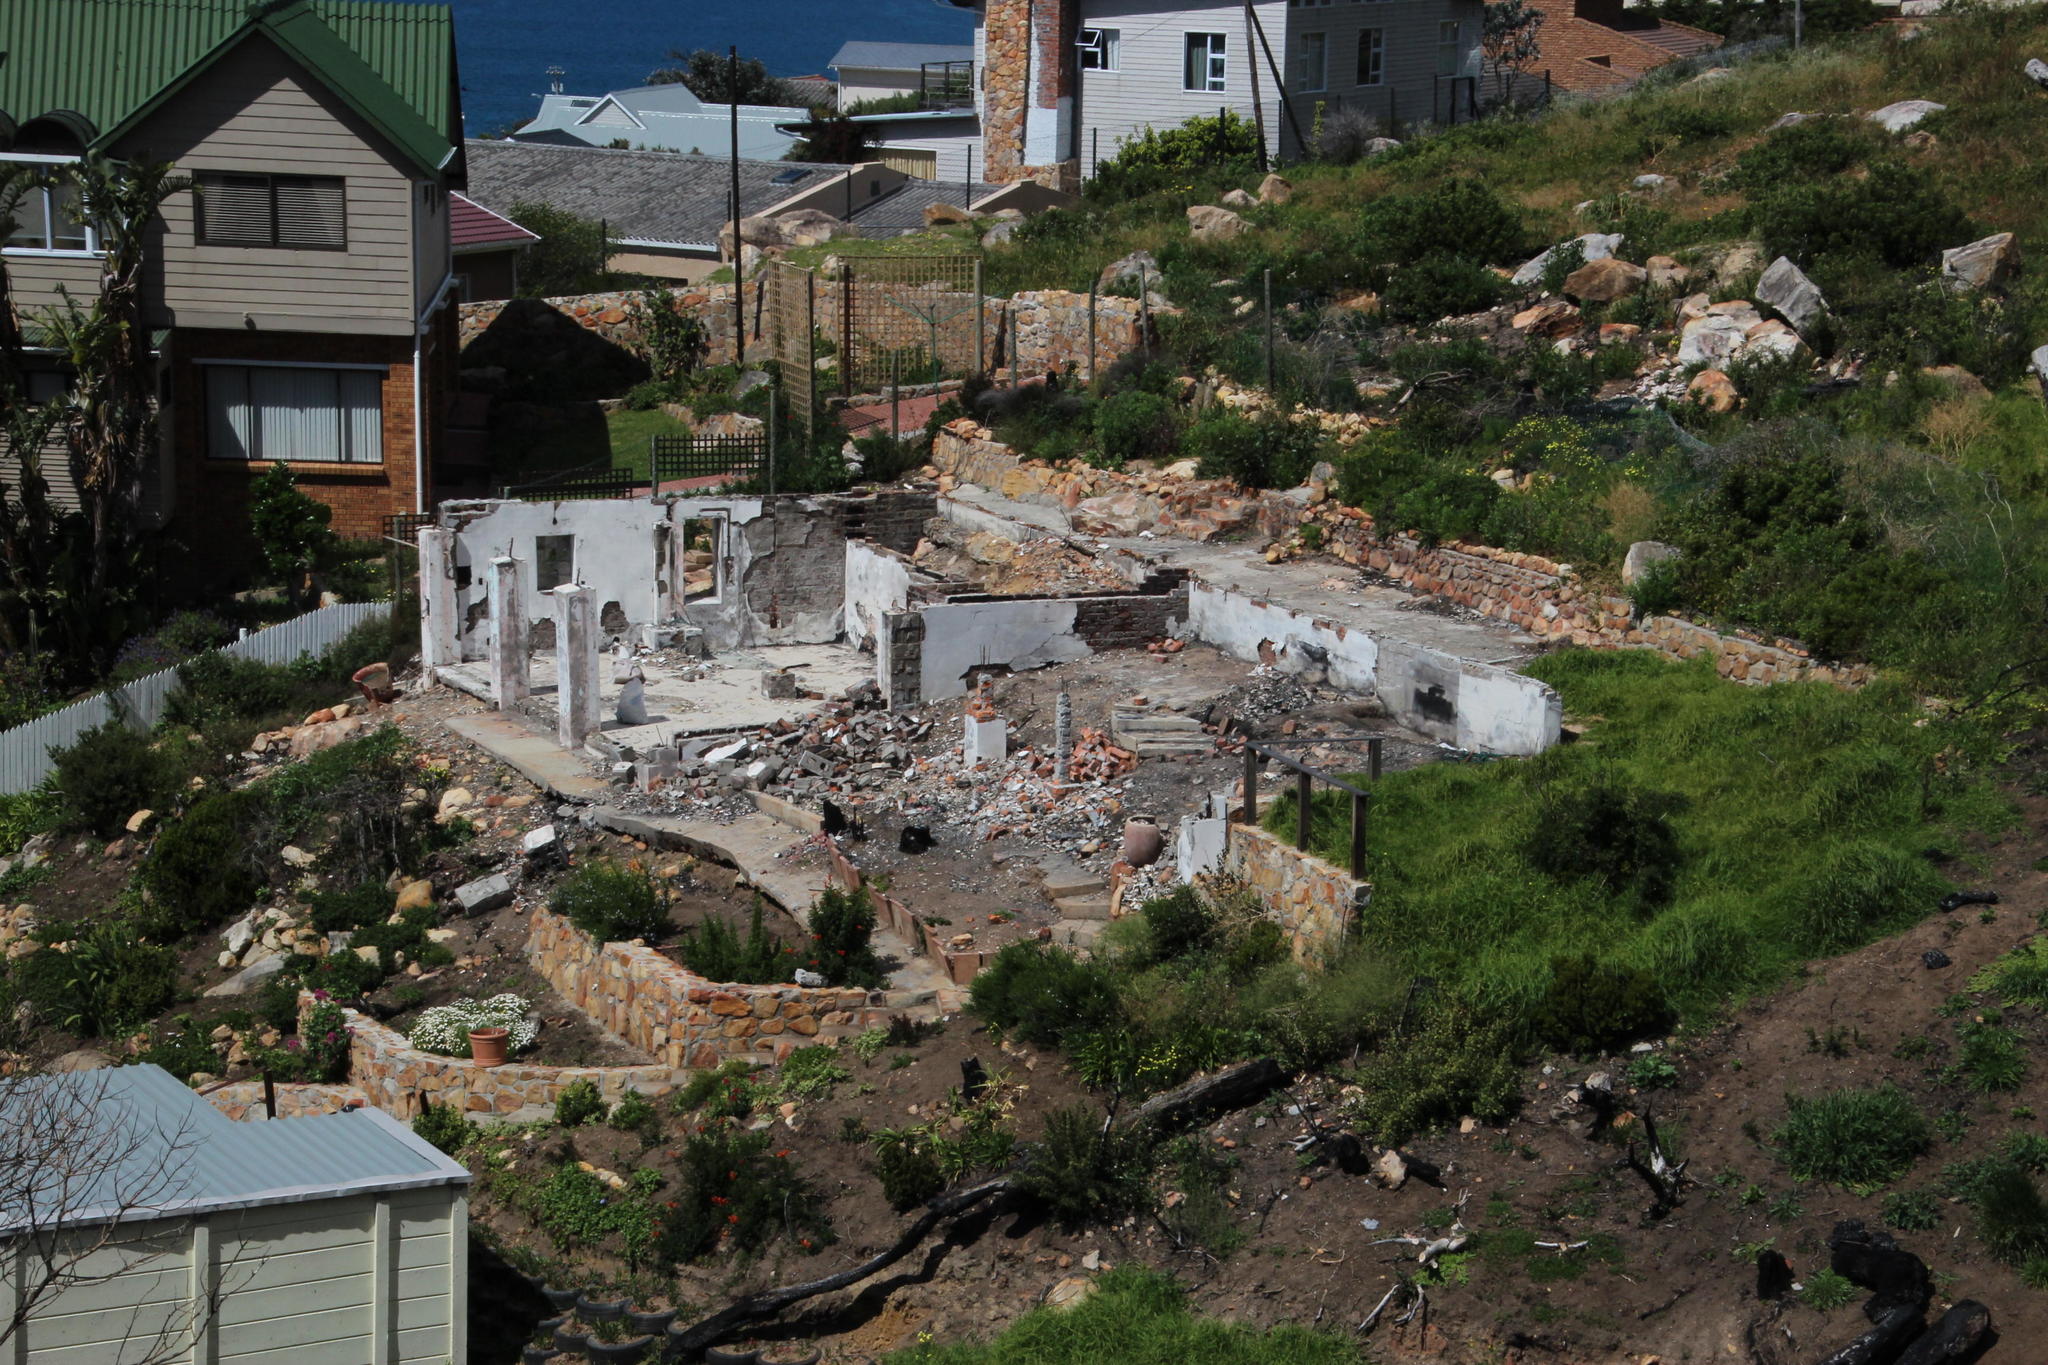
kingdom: Plantae
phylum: Tracheophyta
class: Magnoliopsida
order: Dipsacales
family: Caprifoliaceae
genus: Centranthus
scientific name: Centranthus ruber
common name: Red valerian
